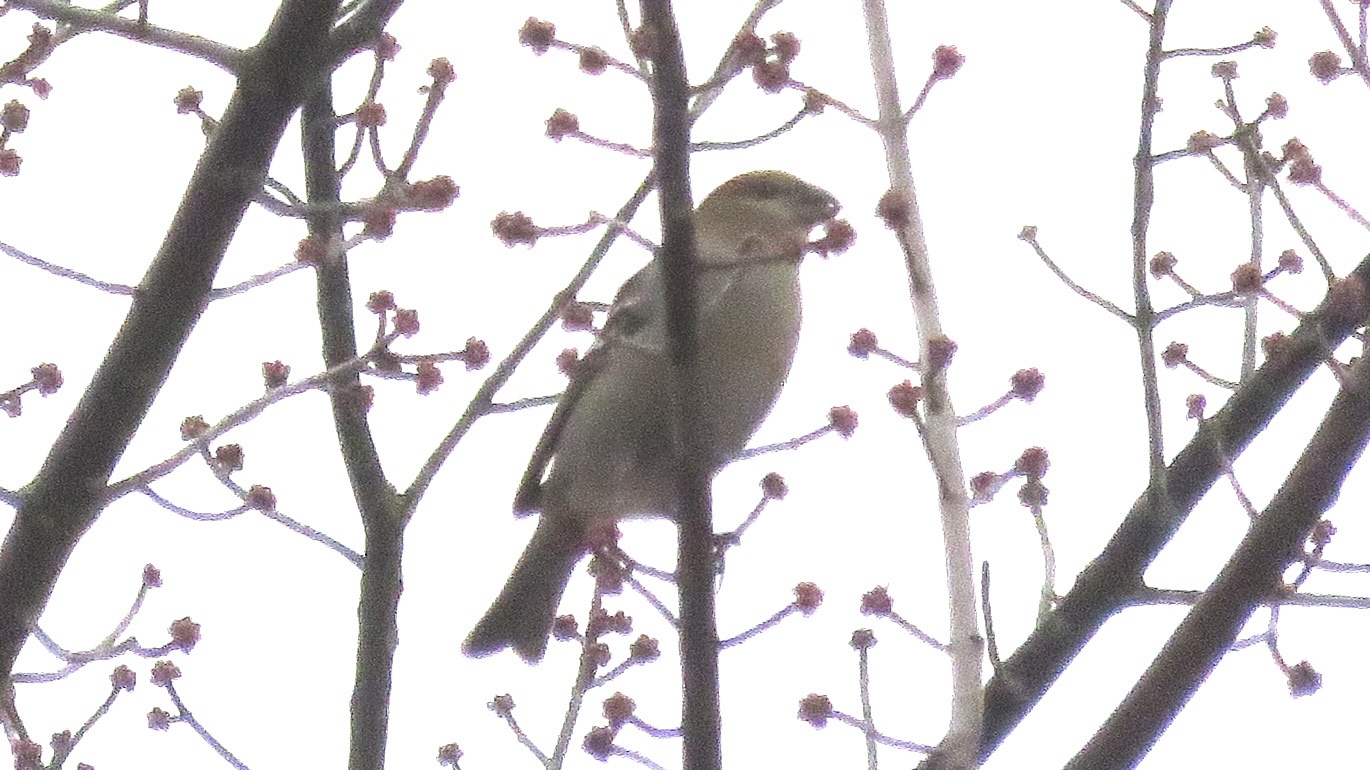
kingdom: Animalia
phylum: Chordata
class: Aves
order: Passeriformes
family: Fringillidae
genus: Pinicola
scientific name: Pinicola enucleator
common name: Pine grosbeak
